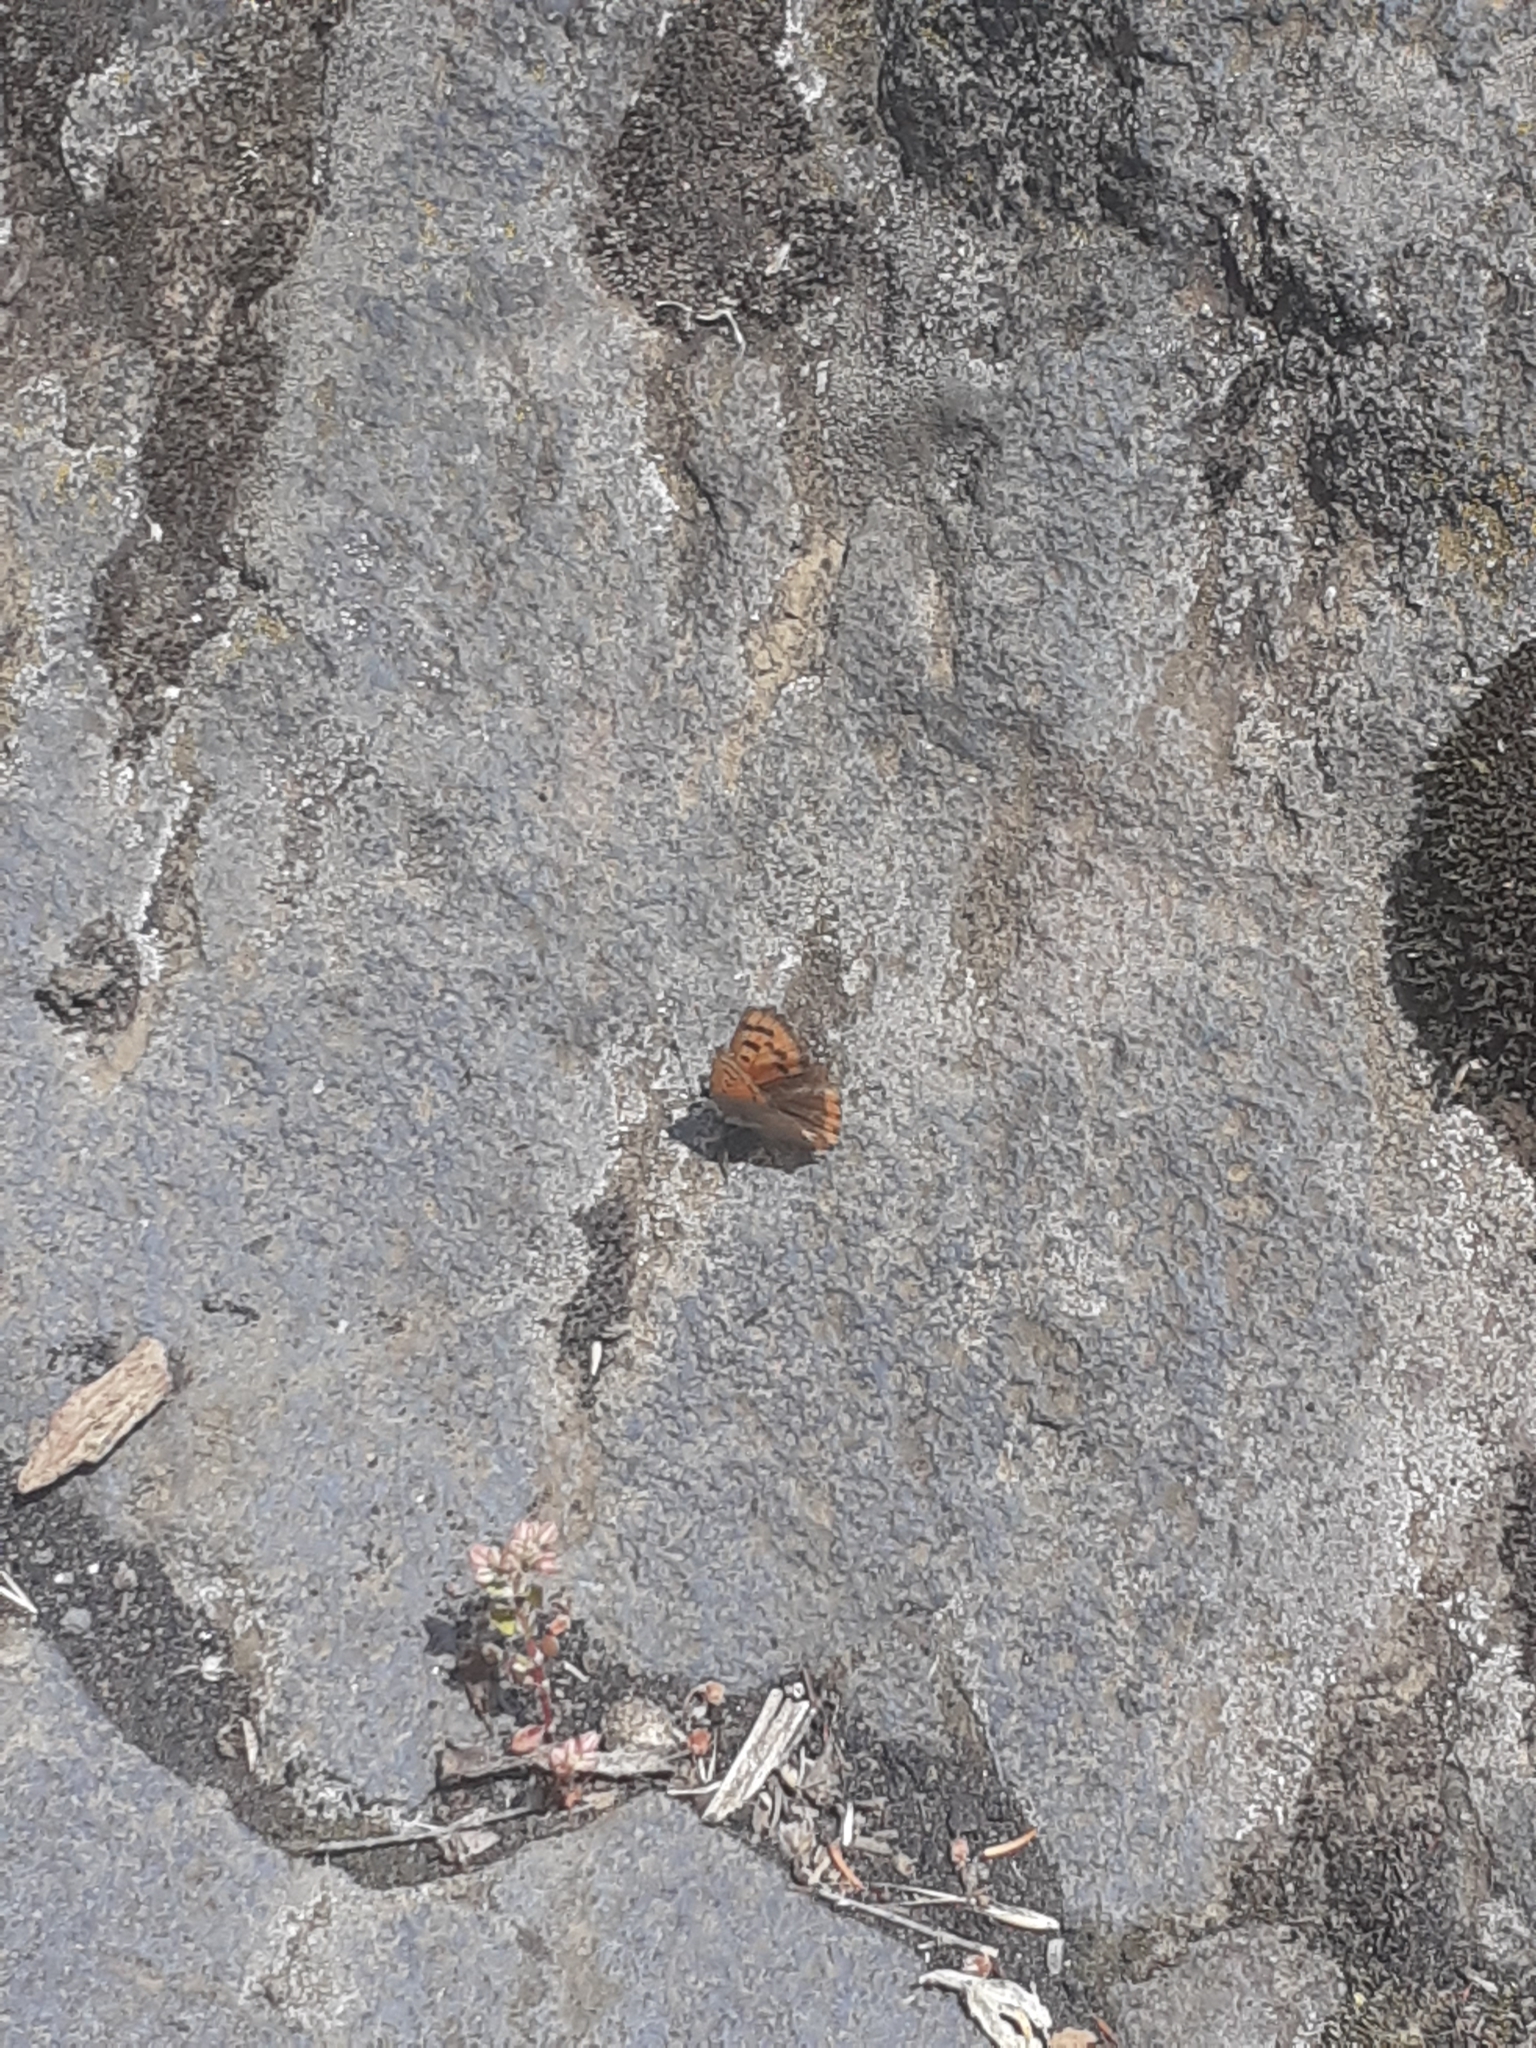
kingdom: Animalia
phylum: Arthropoda
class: Insecta
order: Lepidoptera
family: Lycaenidae
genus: Lycaena
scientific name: Lycaena phlaeas
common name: Small copper
